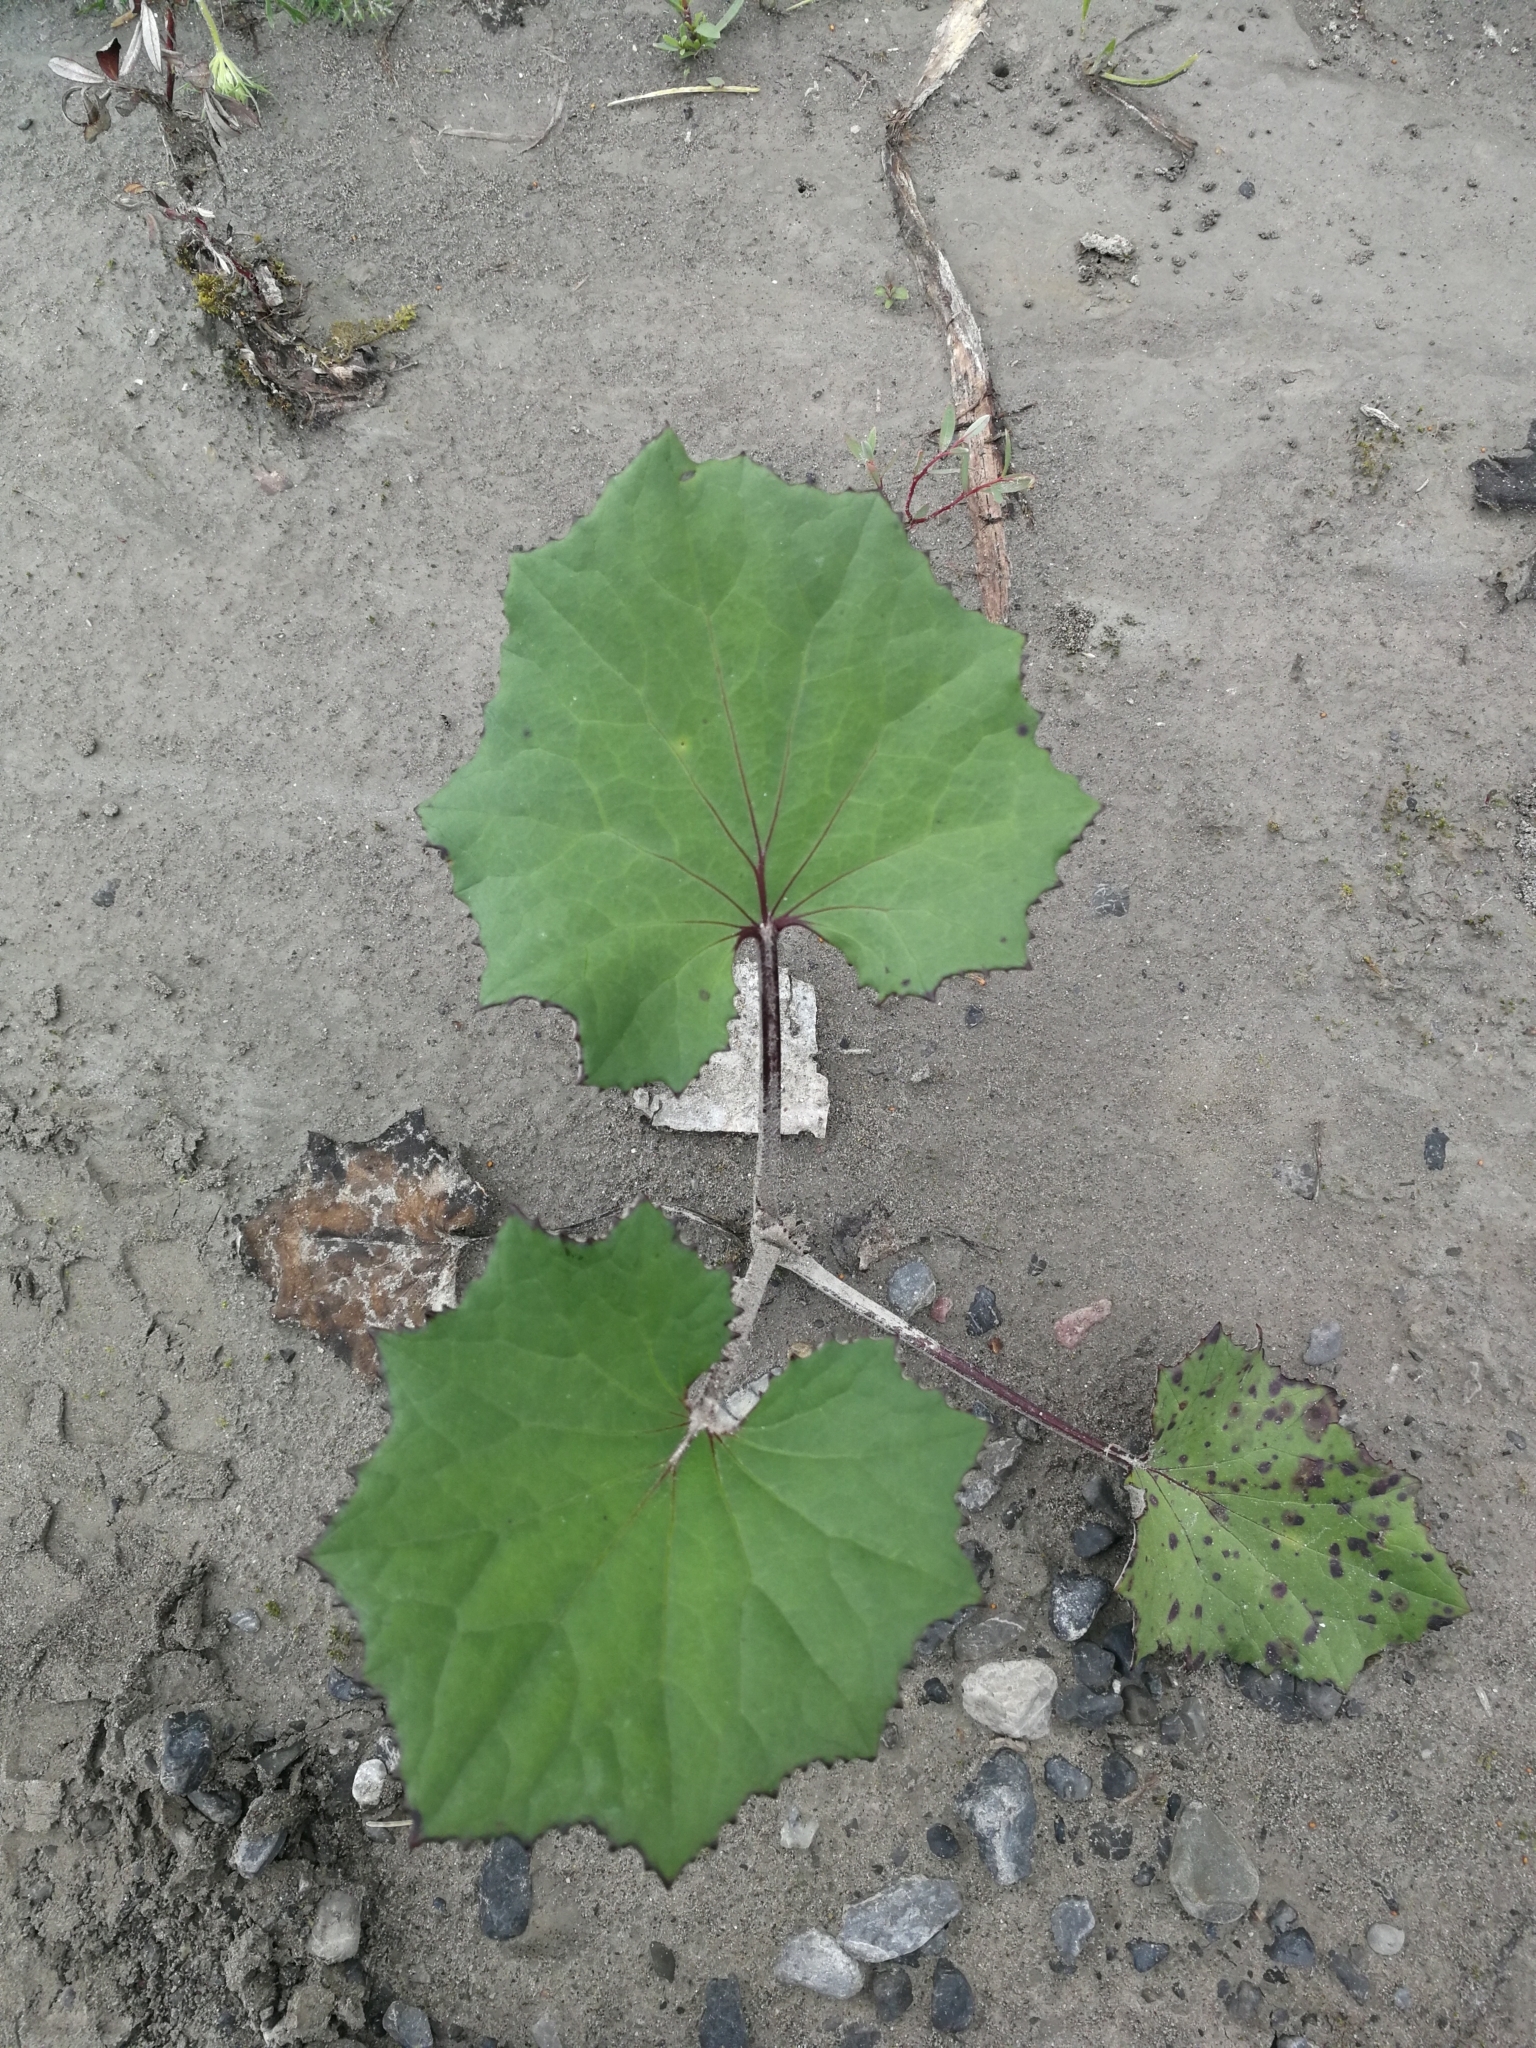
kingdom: Plantae
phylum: Tracheophyta
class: Magnoliopsida
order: Asterales
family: Asteraceae
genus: Tussilago
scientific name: Tussilago farfara
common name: Coltsfoot
